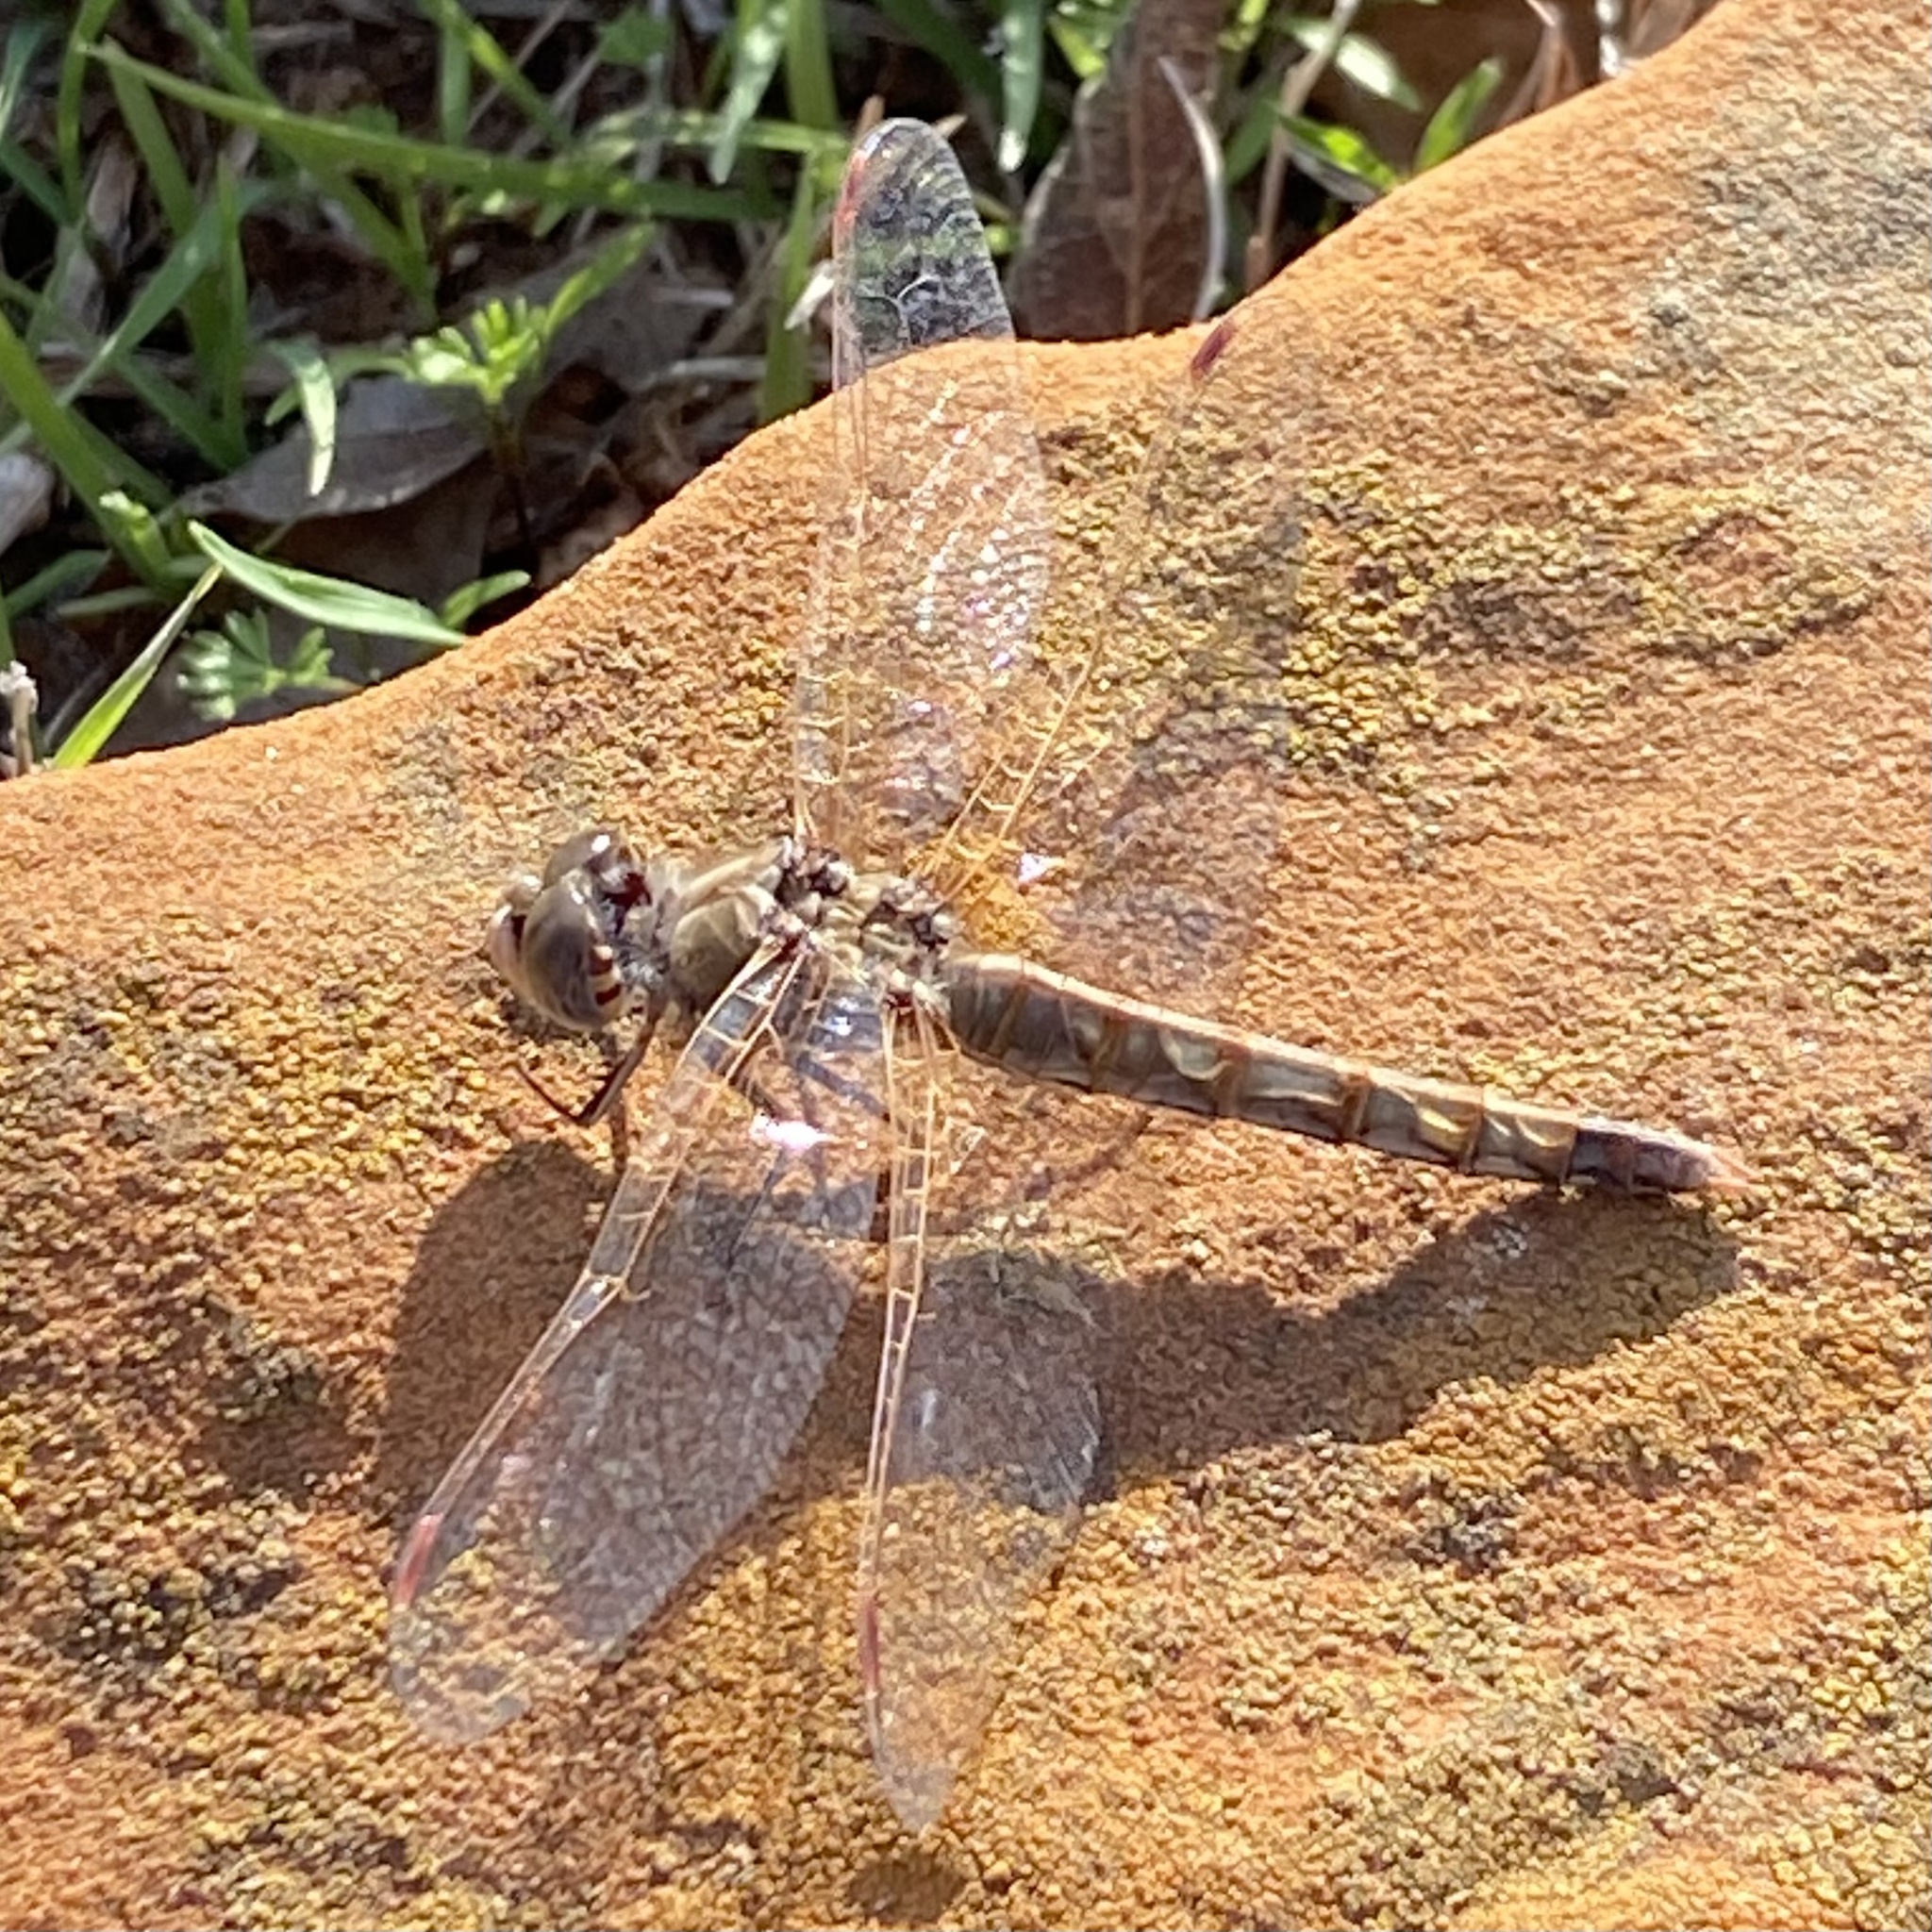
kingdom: Animalia
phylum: Arthropoda
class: Insecta
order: Odonata
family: Libellulidae
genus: Sympetrum
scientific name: Sympetrum corruptum
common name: Variegated meadowhawk
